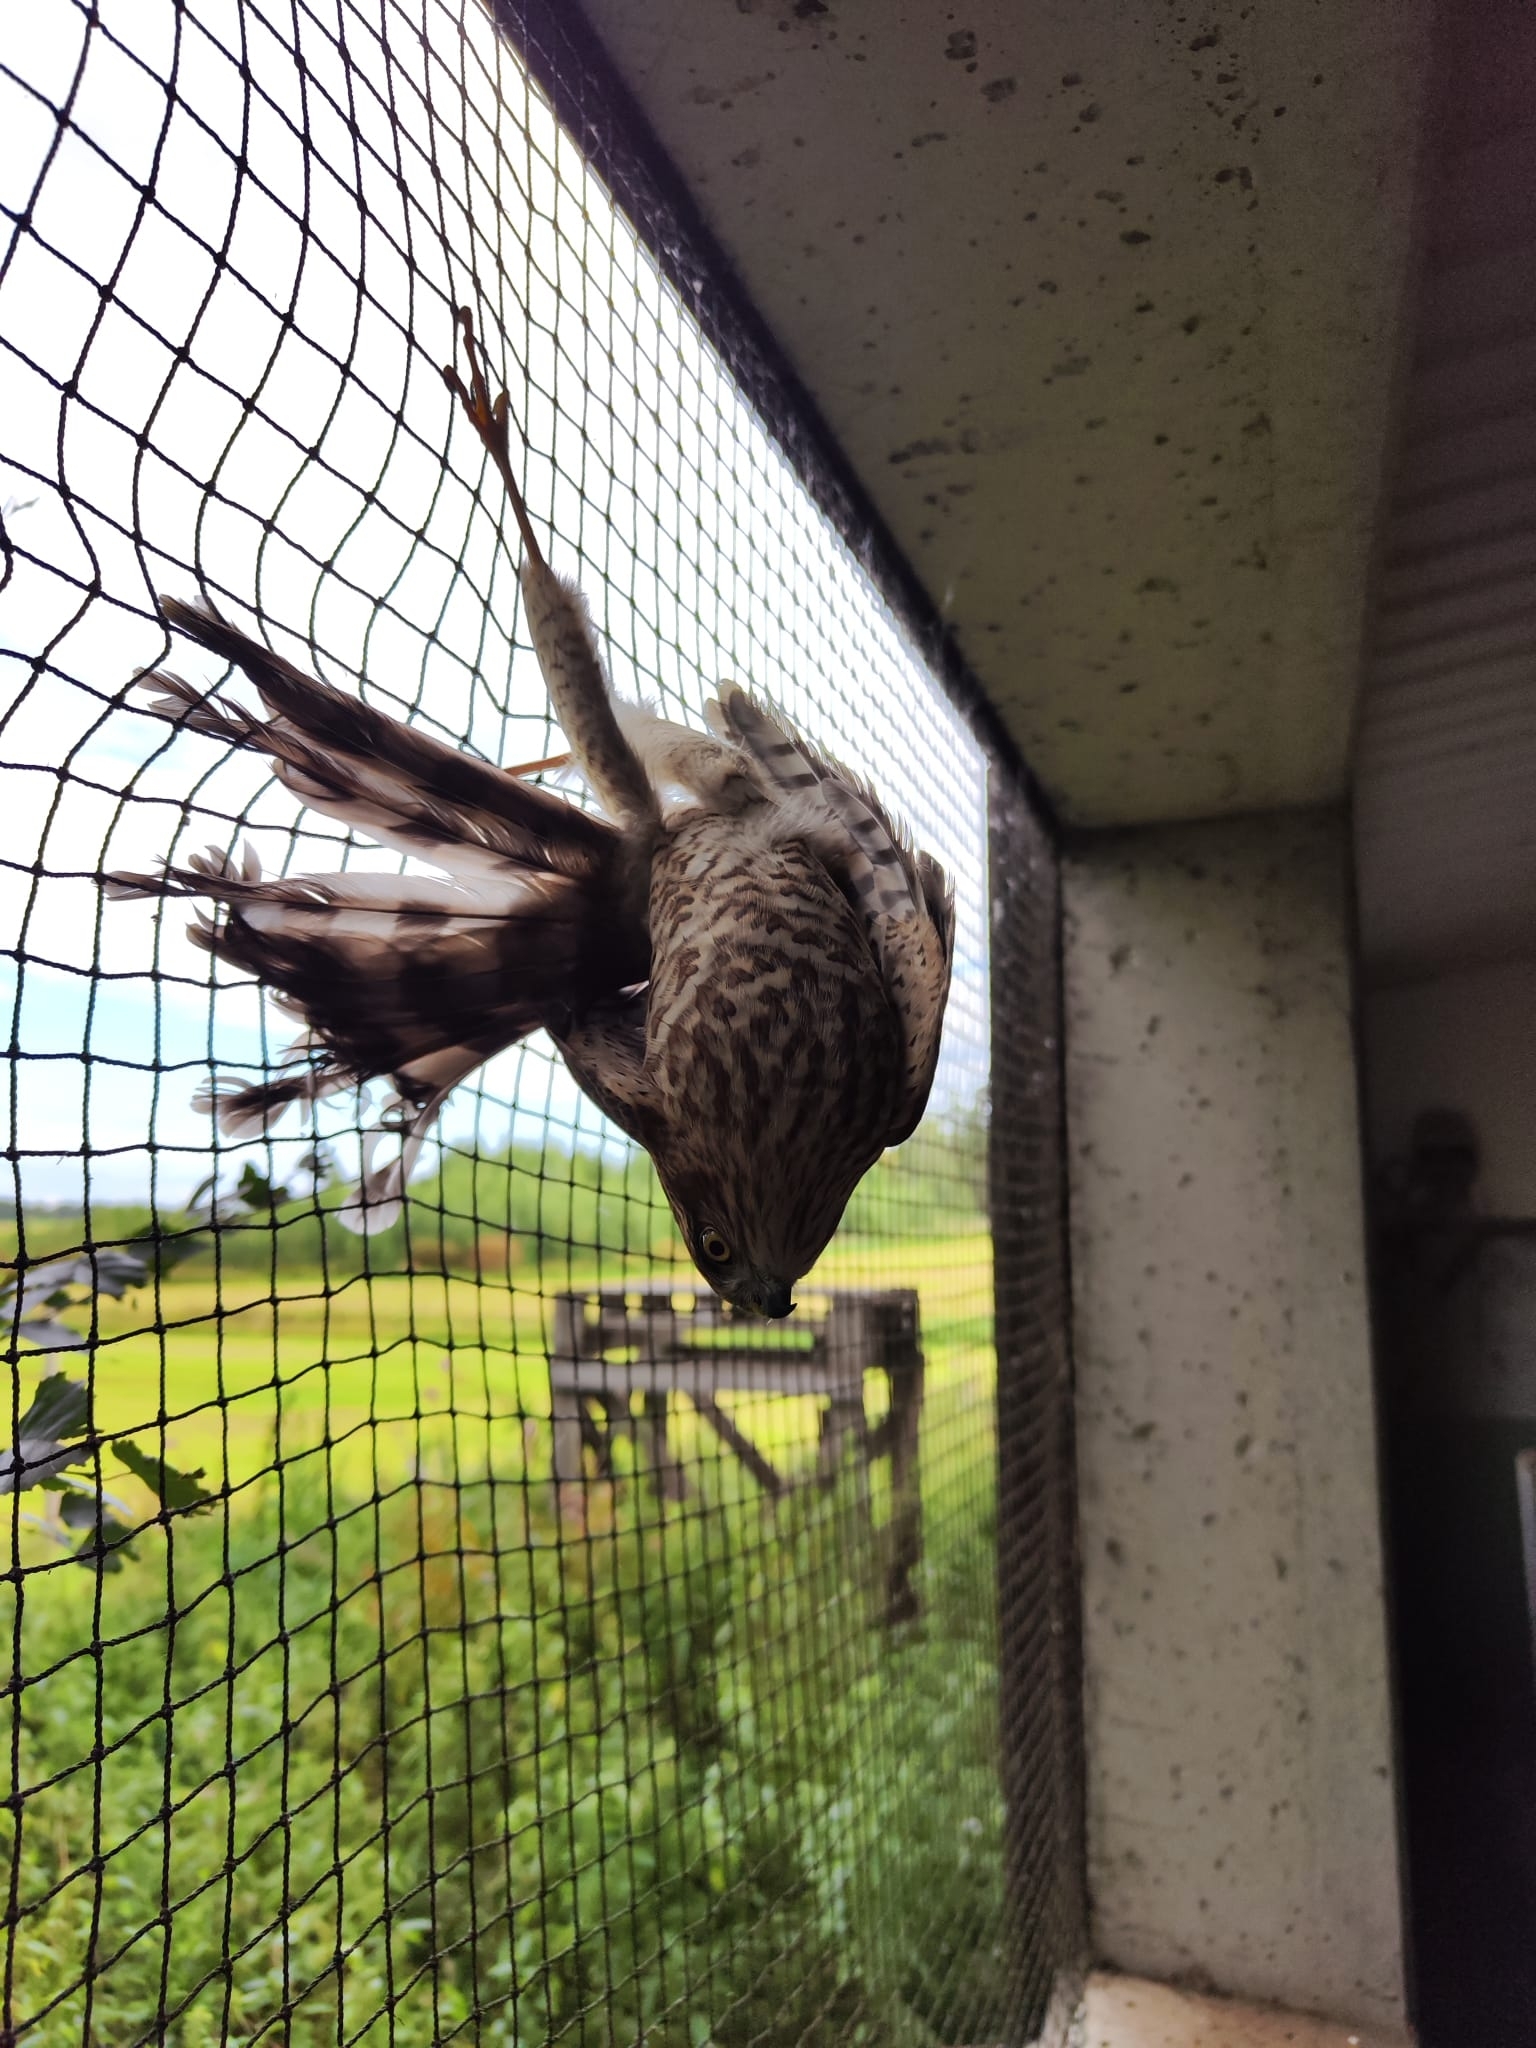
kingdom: Animalia
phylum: Chordata
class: Aves
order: Accipitriformes
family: Accipitridae
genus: Accipiter
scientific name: Accipiter nisus
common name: Eurasian sparrowhawk
